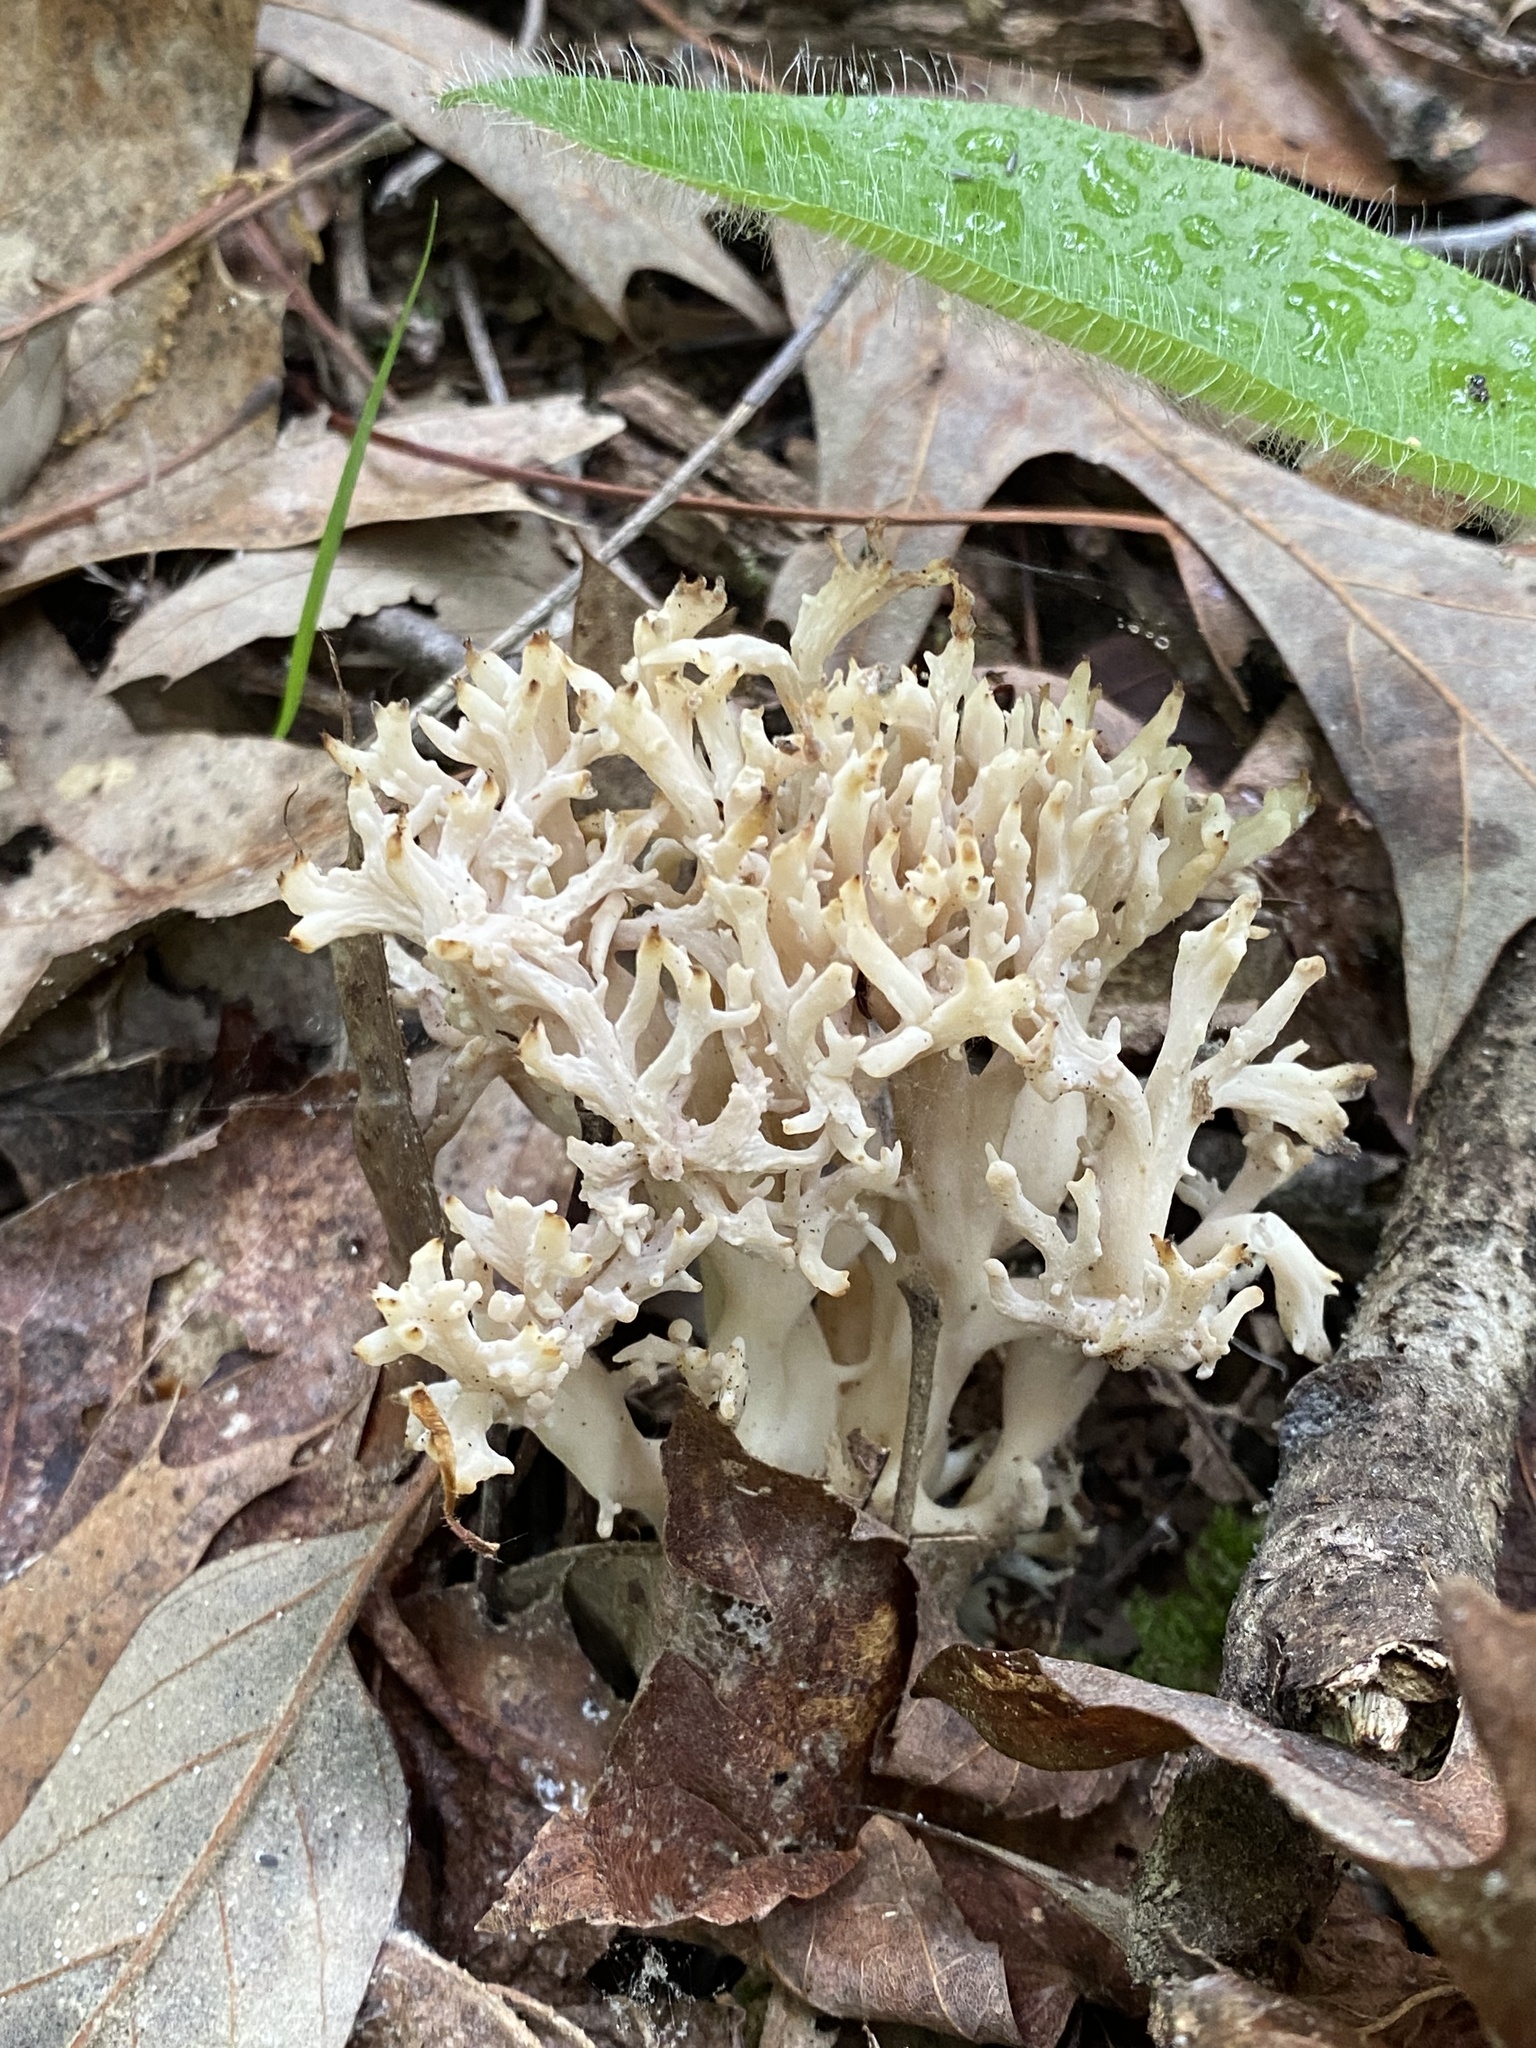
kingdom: Fungi
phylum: Basidiomycota
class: Agaricomycetes
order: Sebacinales
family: Sebacinaceae
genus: Sebacina
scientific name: Sebacina schweinitzii
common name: Jellied false coral fungus
